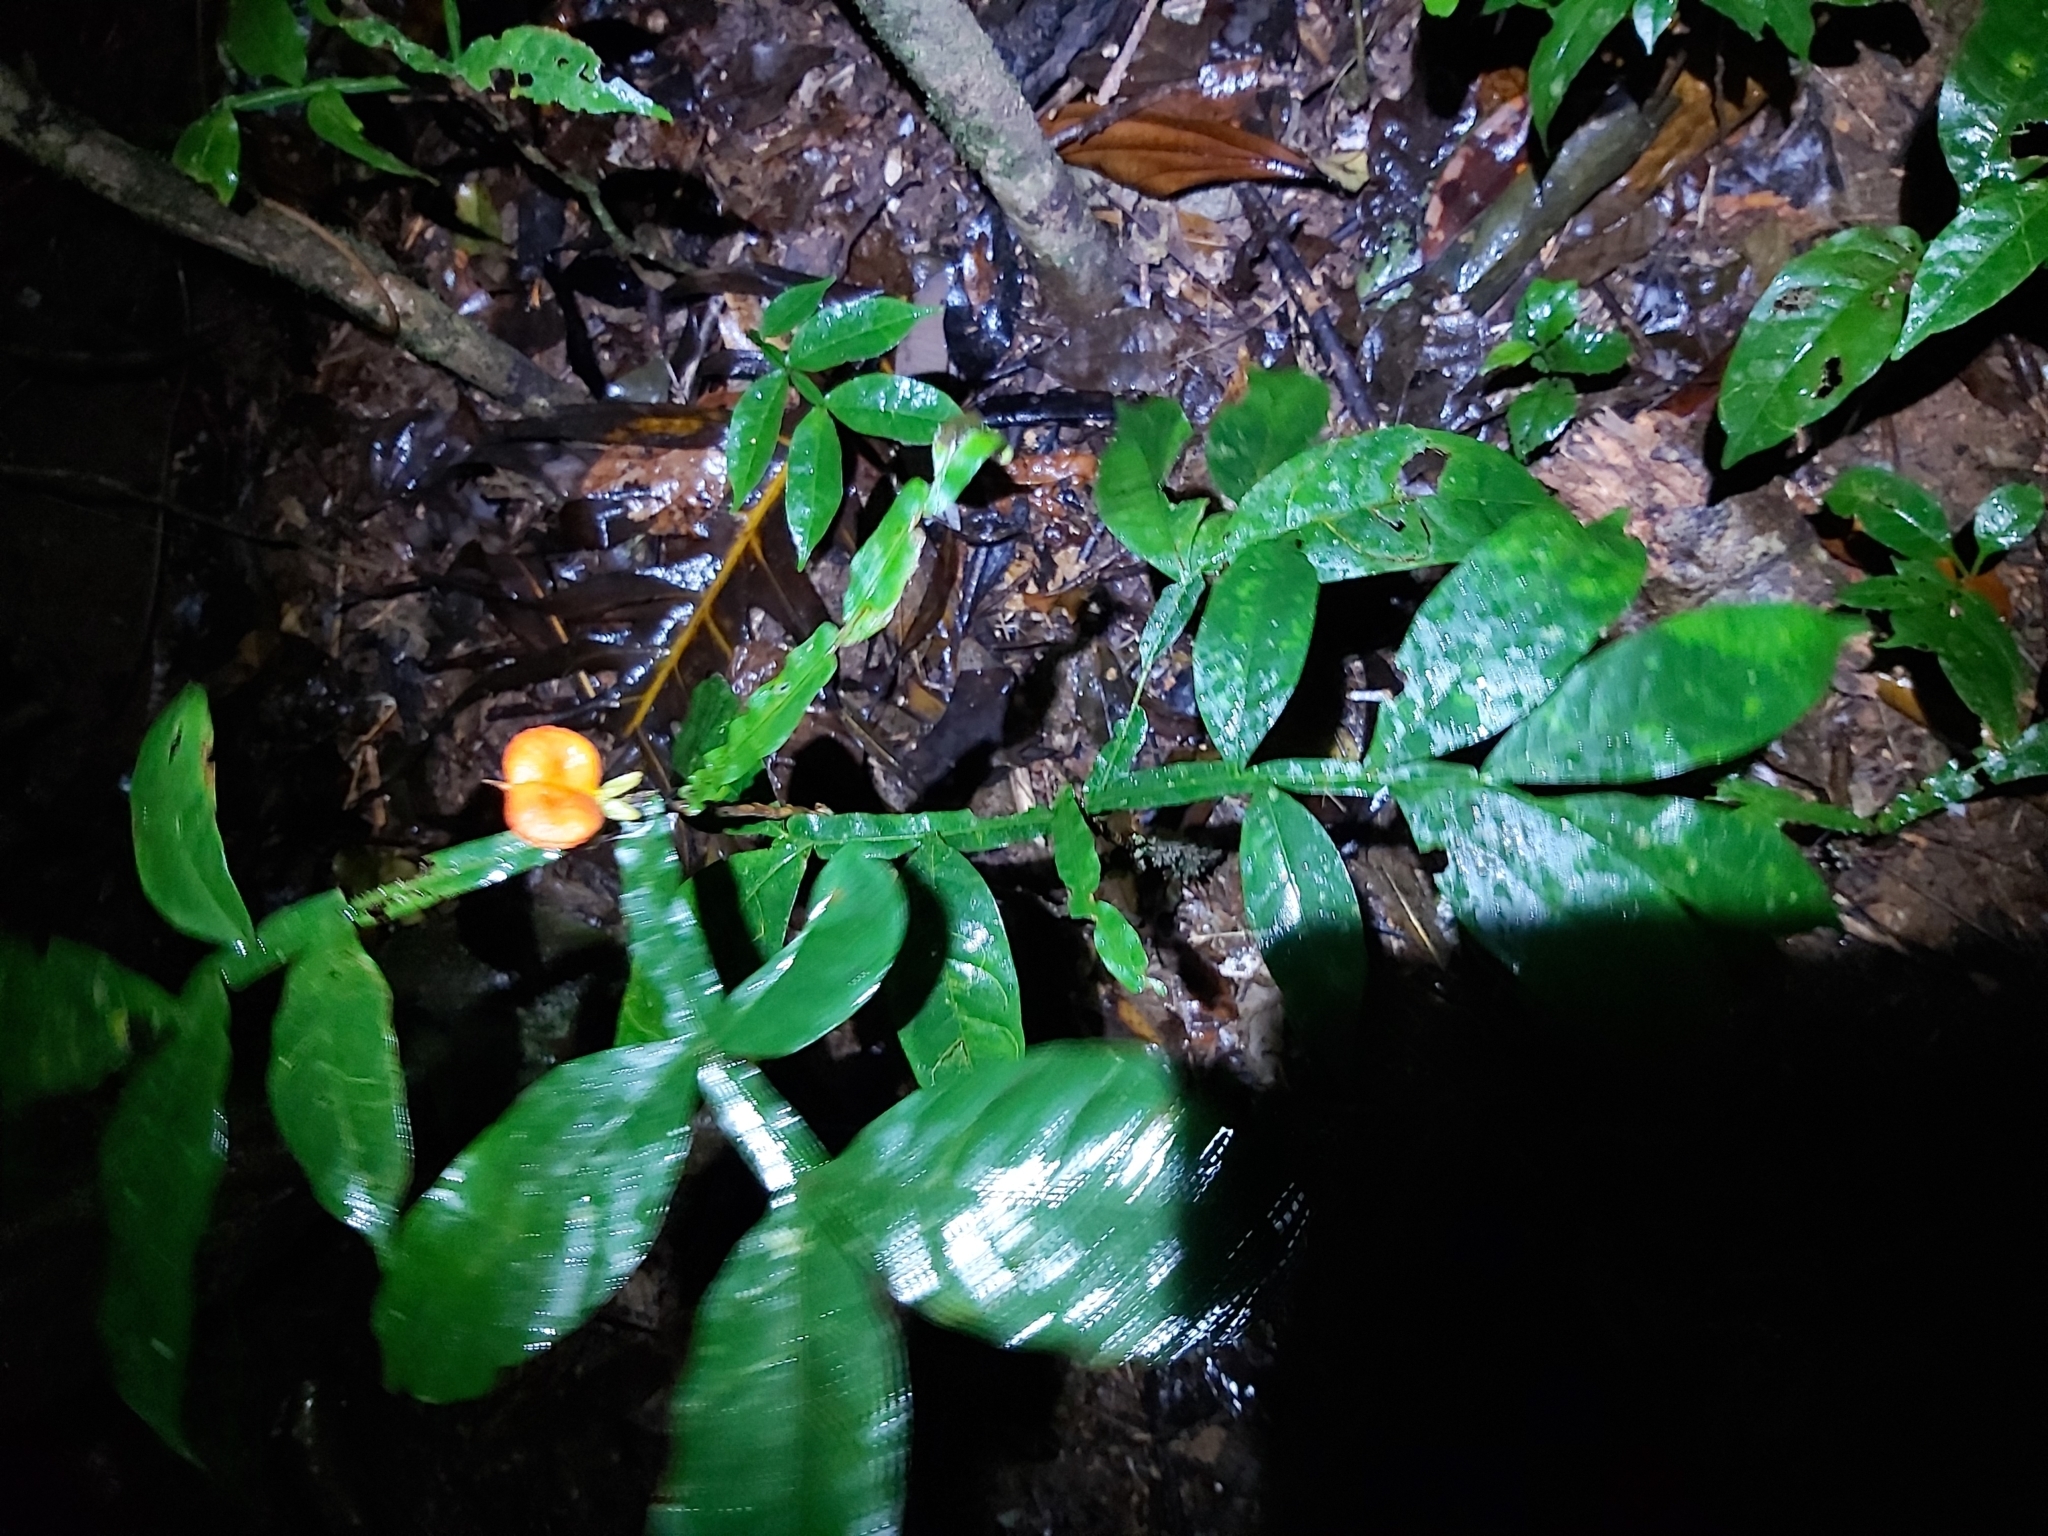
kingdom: Plantae
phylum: Tracheophyta
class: Magnoliopsida
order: Sapindales
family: Sapindaceae
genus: Harpullia
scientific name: Harpullia frutescens
